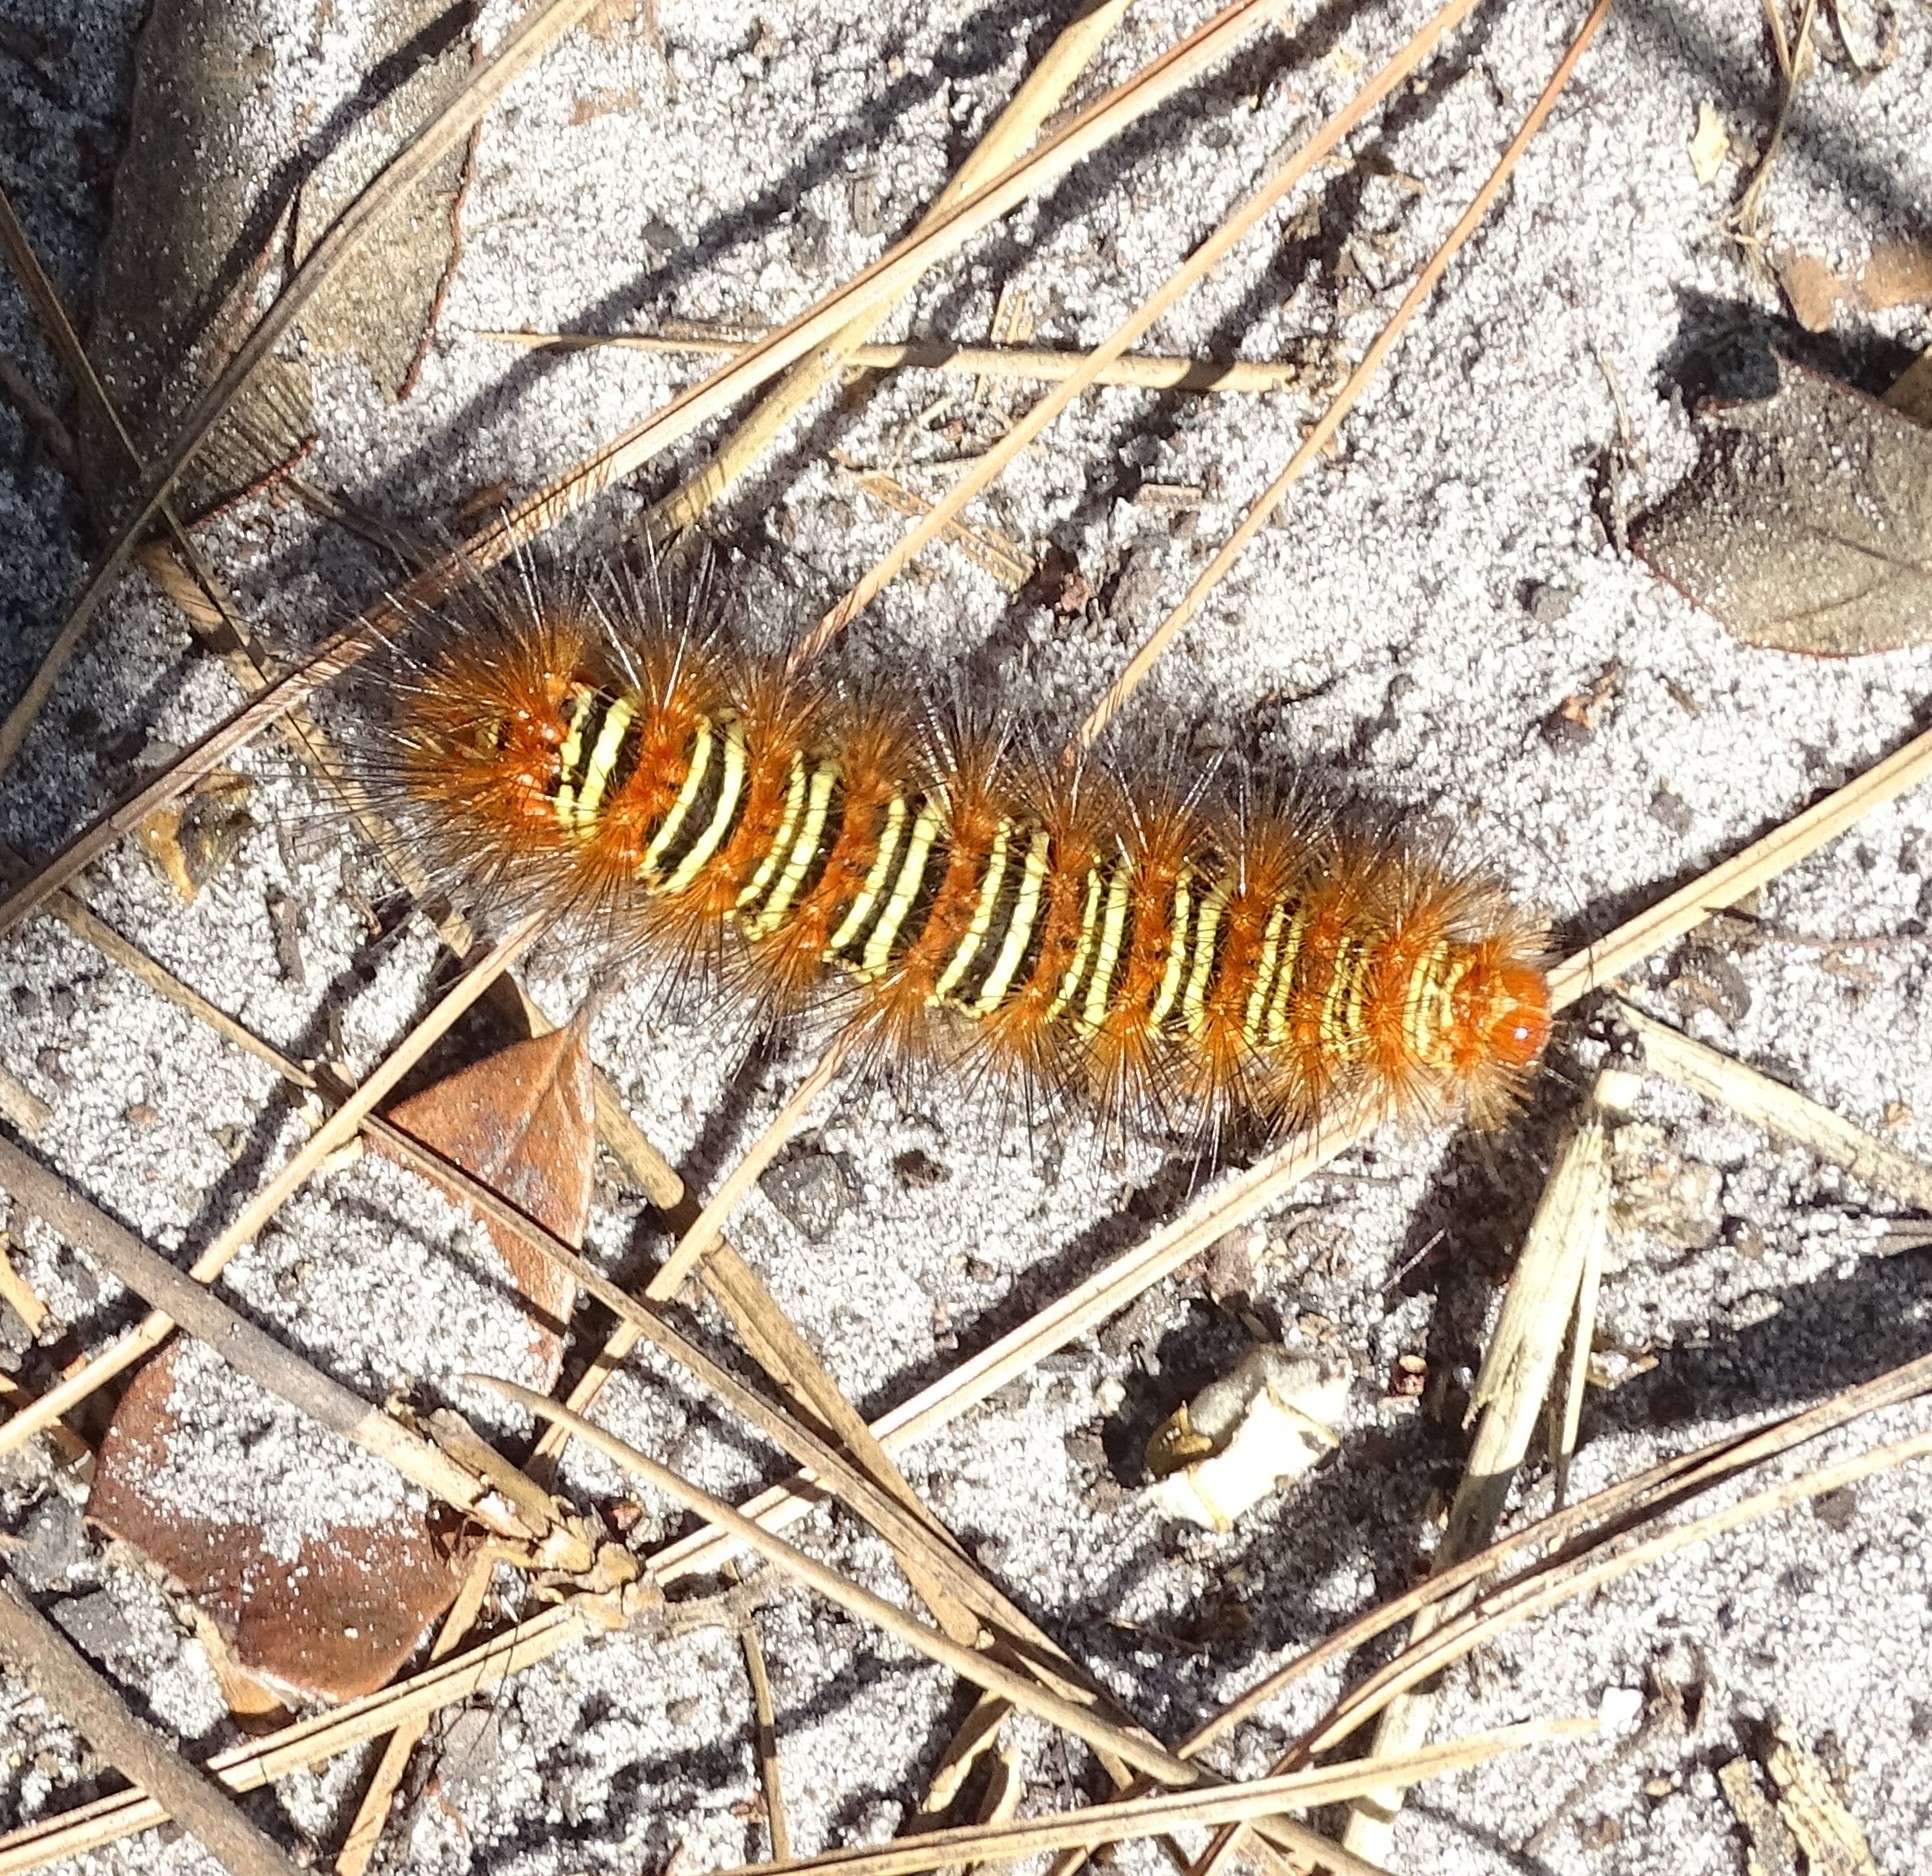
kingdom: Animalia
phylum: Arthropoda
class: Insecta
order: Lepidoptera
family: Erebidae
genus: Seirarctia
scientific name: Seirarctia echo
